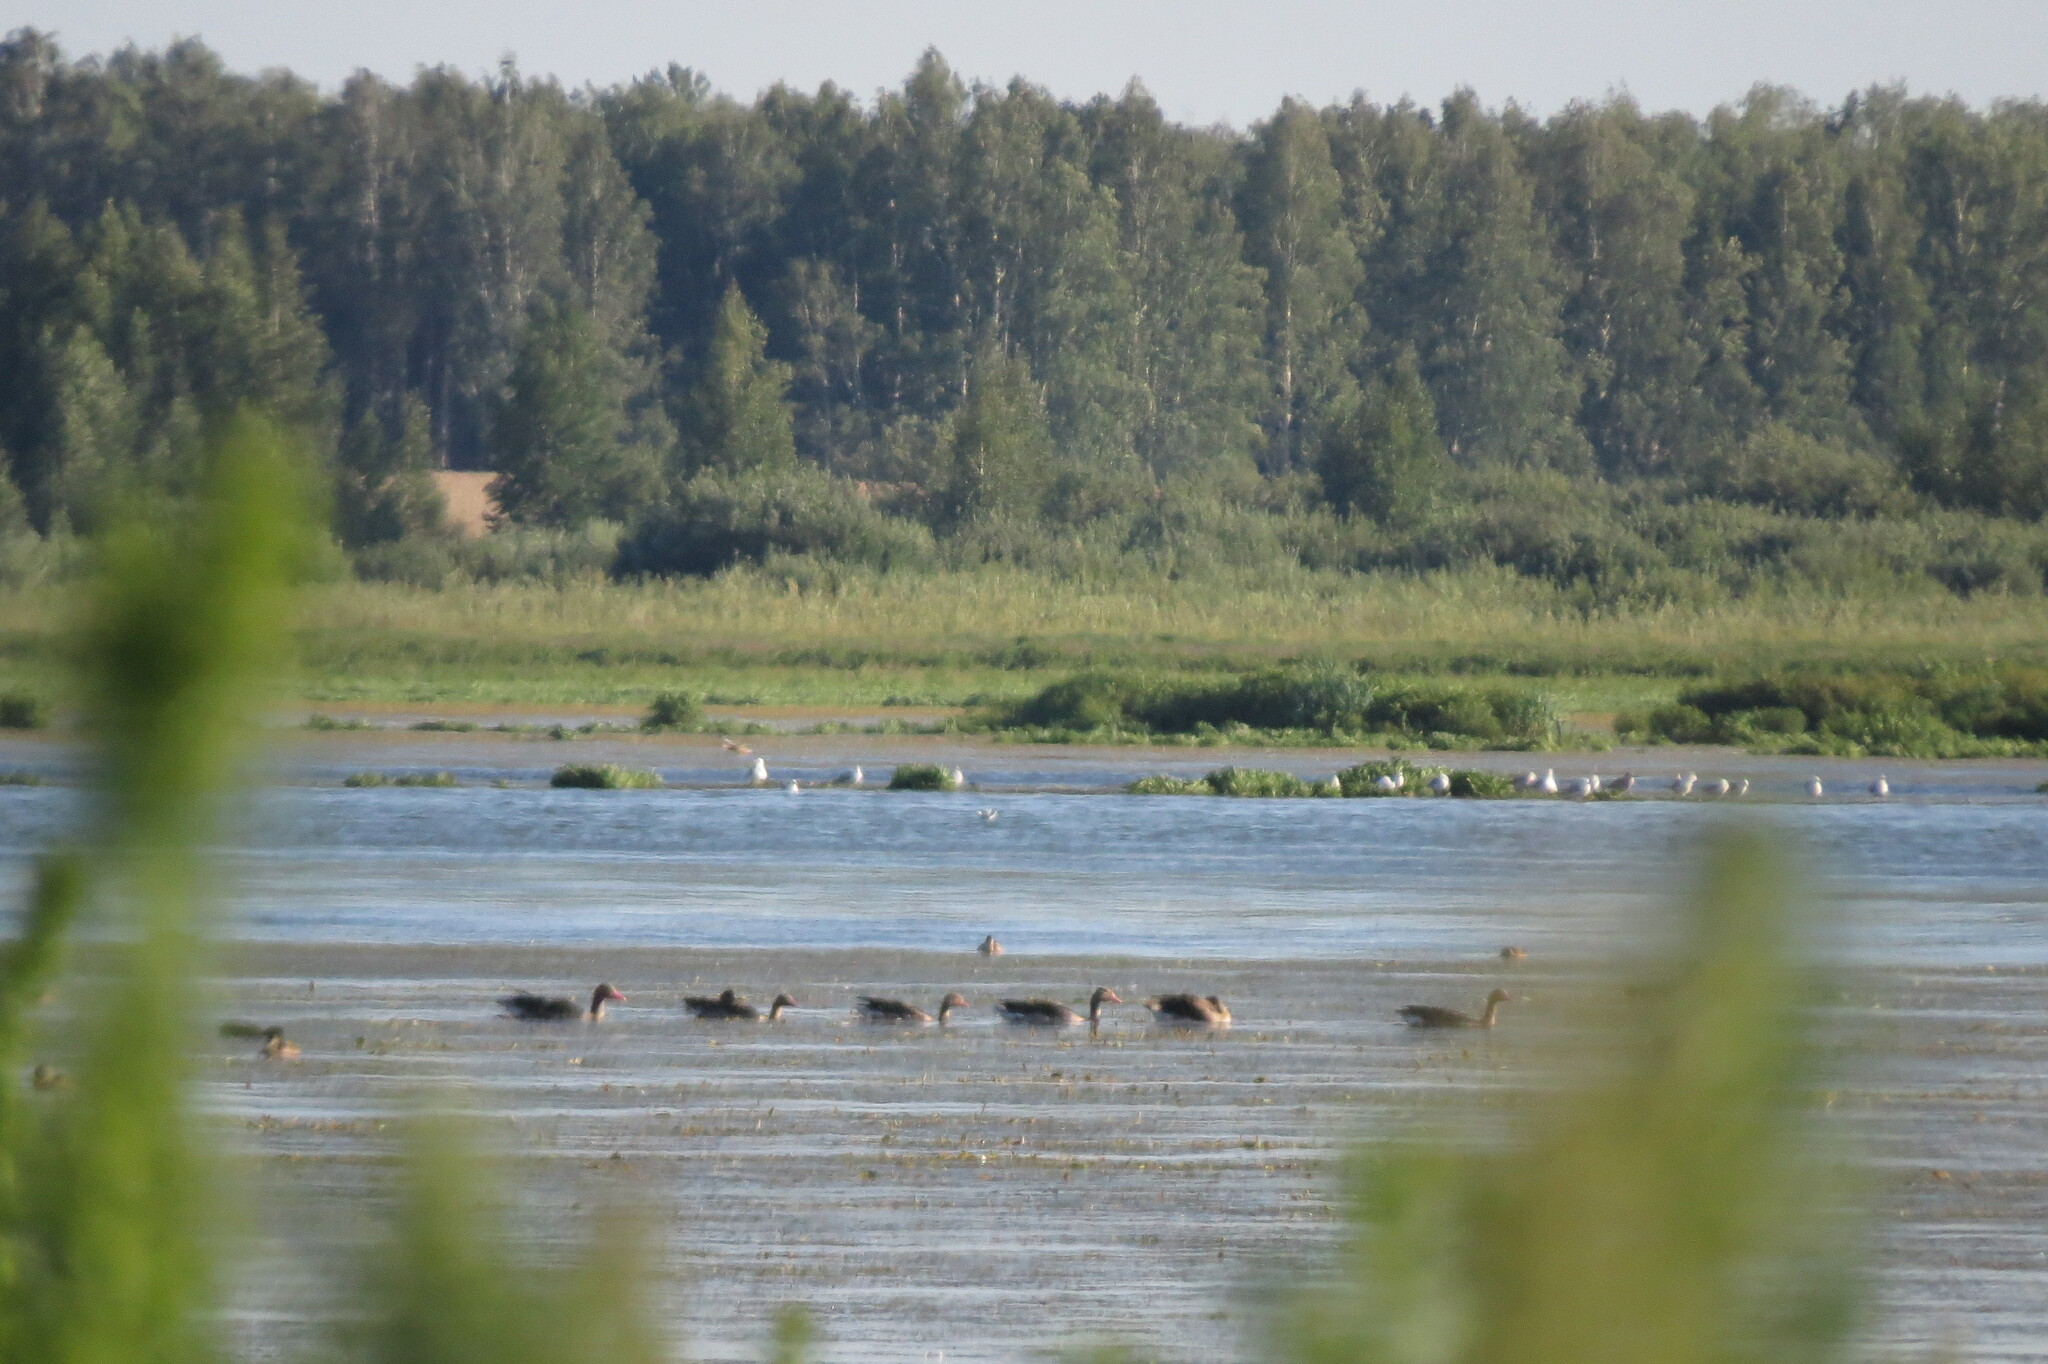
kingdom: Animalia
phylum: Chordata
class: Aves
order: Anseriformes
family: Anatidae
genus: Anser
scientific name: Anser anser
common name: Greylag goose
